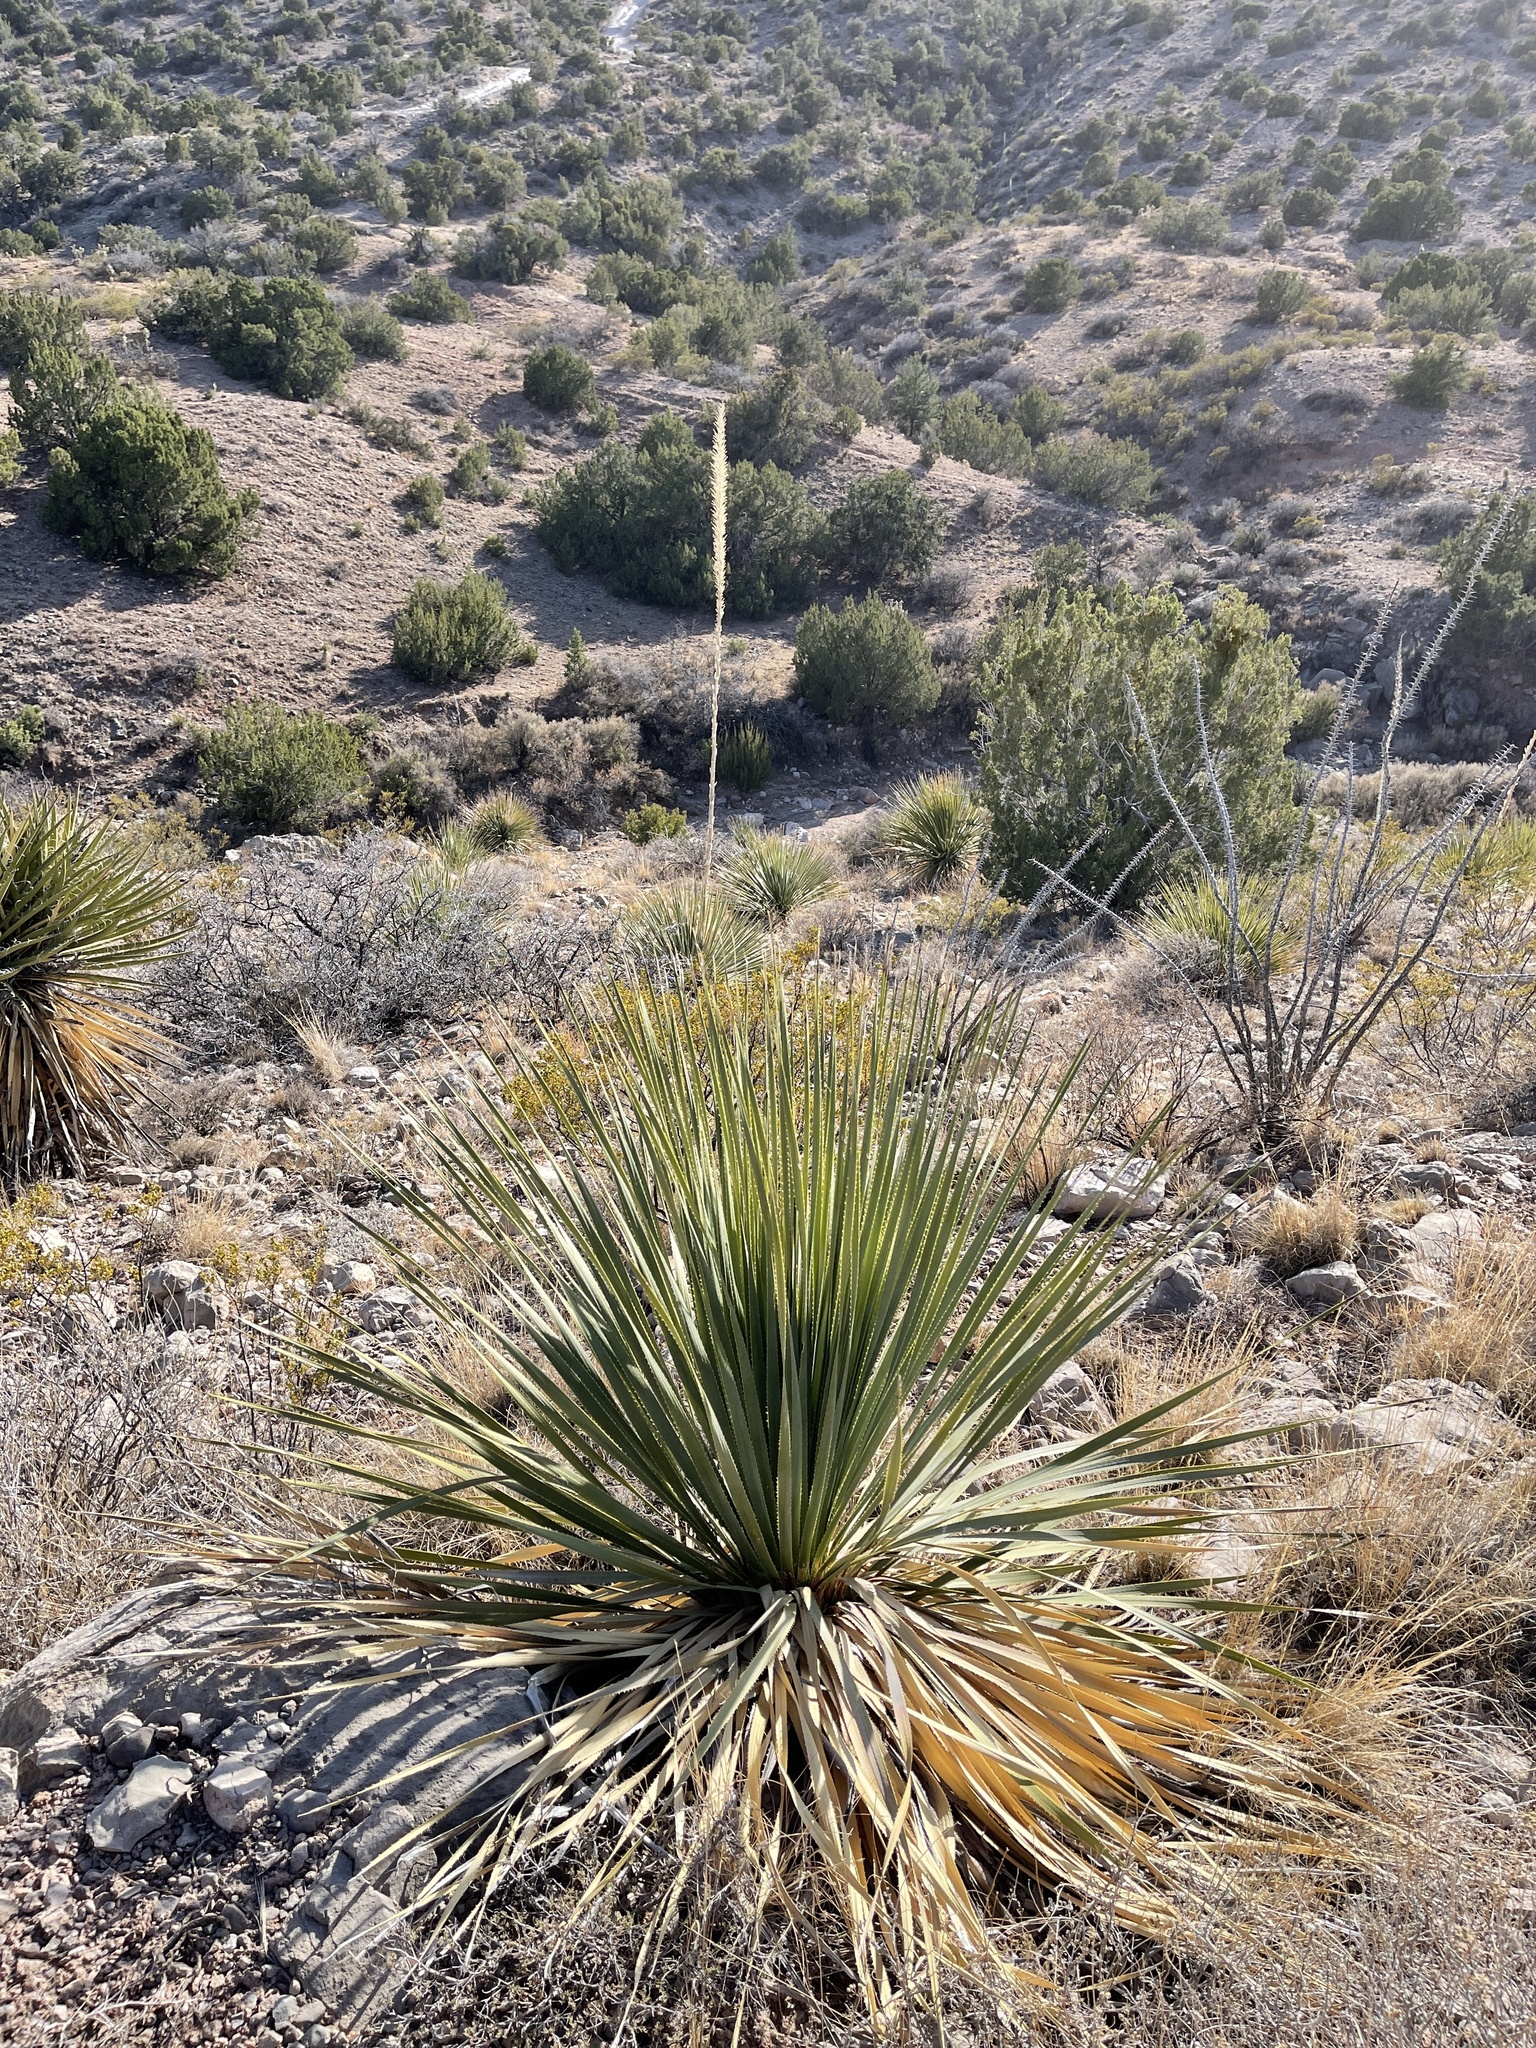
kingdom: Plantae
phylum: Tracheophyta
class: Liliopsida
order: Asparagales
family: Asparagaceae
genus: Dasylirion
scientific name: Dasylirion wheeleri
